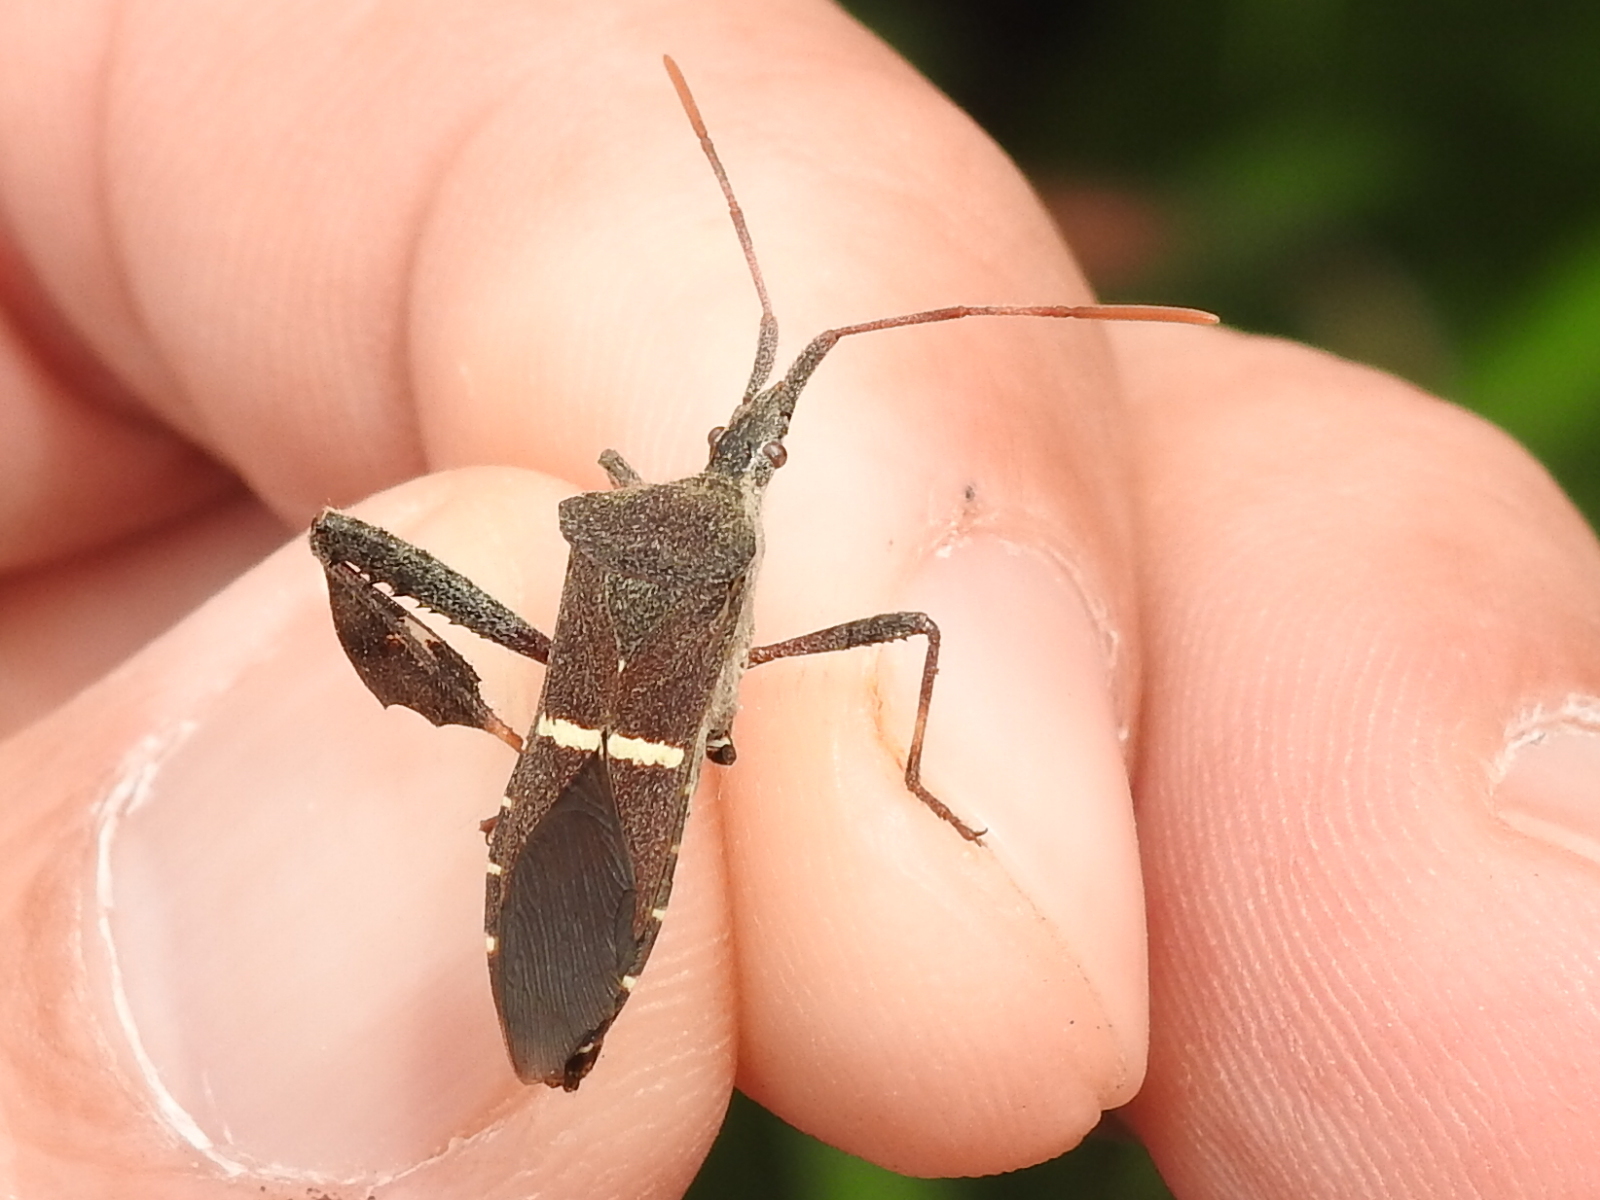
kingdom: Animalia
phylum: Arthropoda
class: Insecta
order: Hemiptera
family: Coreidae
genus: Leptoglossus
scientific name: Leptoglossus phyllopus
